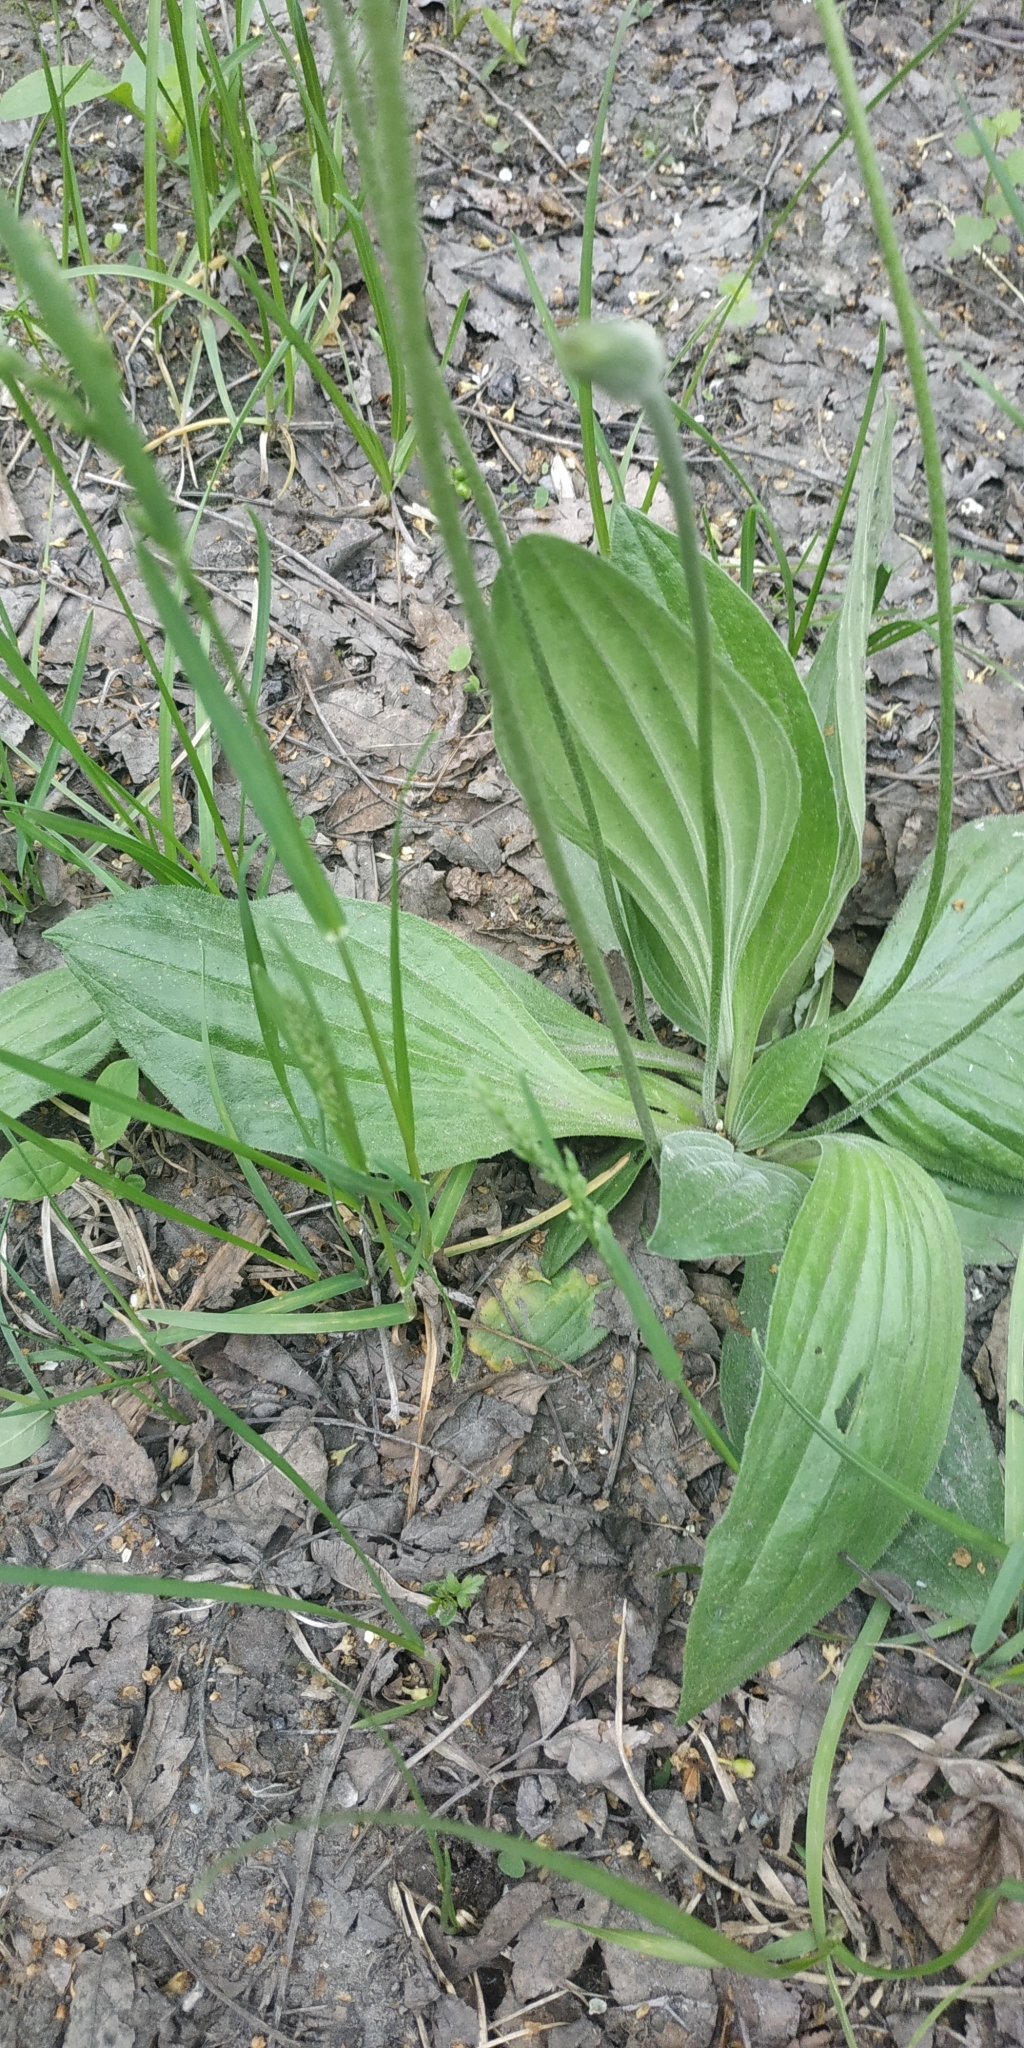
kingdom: Plantae
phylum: Tracheophyta
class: Magnoliopsida
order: Lamiales
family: Plantaginaceae
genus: Plantago
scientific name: Plantago media
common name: Hoary plantain
